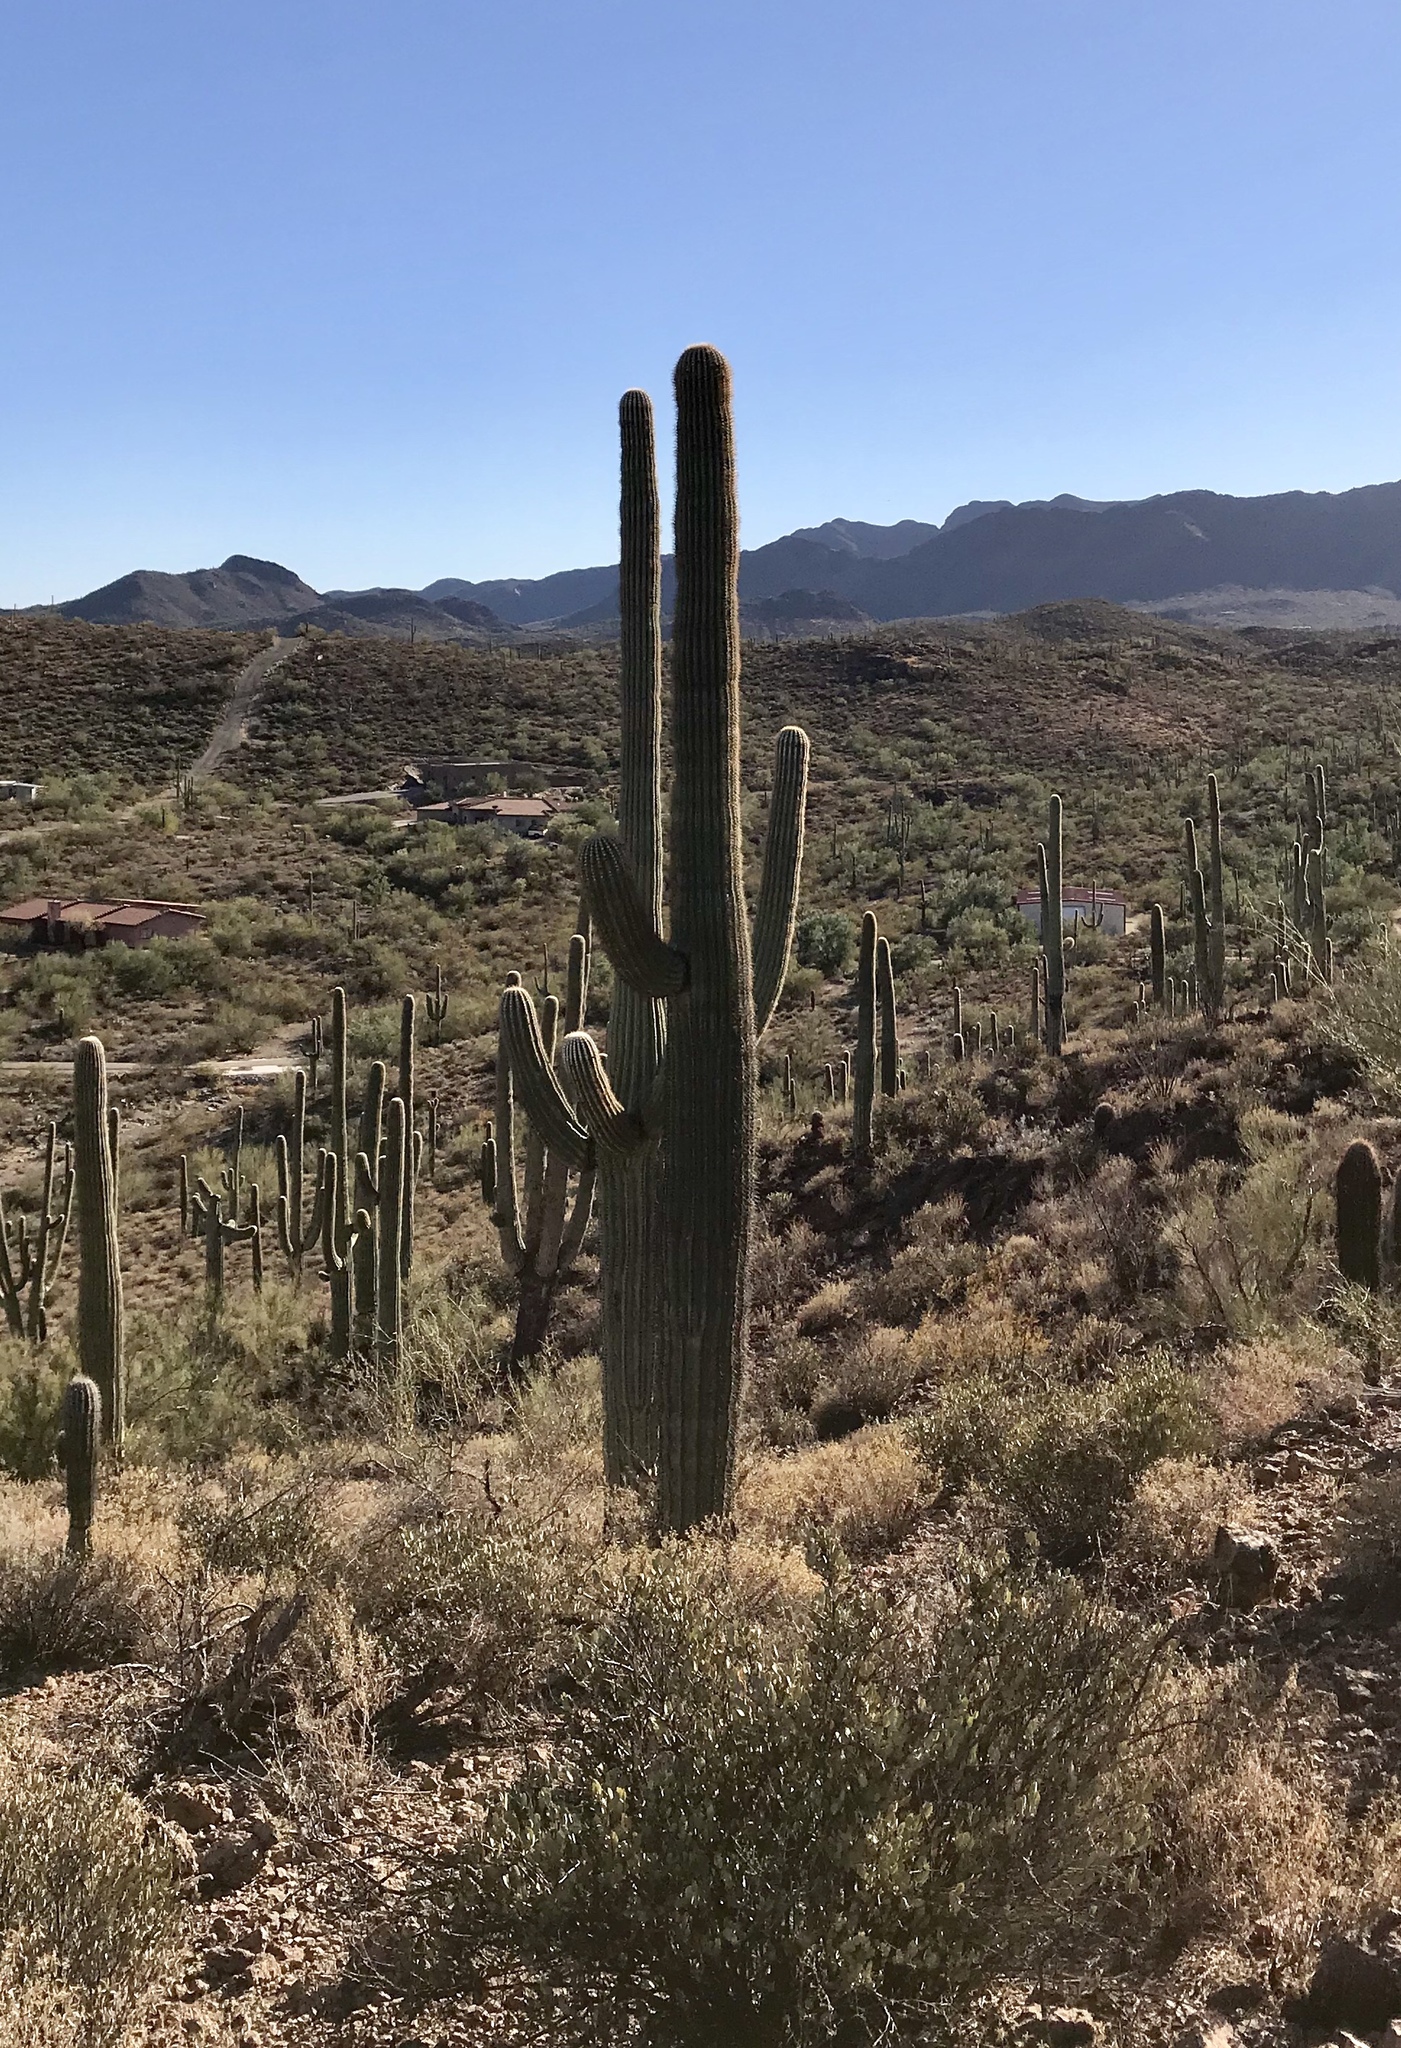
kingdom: Plantae
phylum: Tracheophyta
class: Magnoliopsida
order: Caryophyllales
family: Cactaceae
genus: Carnegiea
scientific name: Carnegiea gigantea
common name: Saguaro
